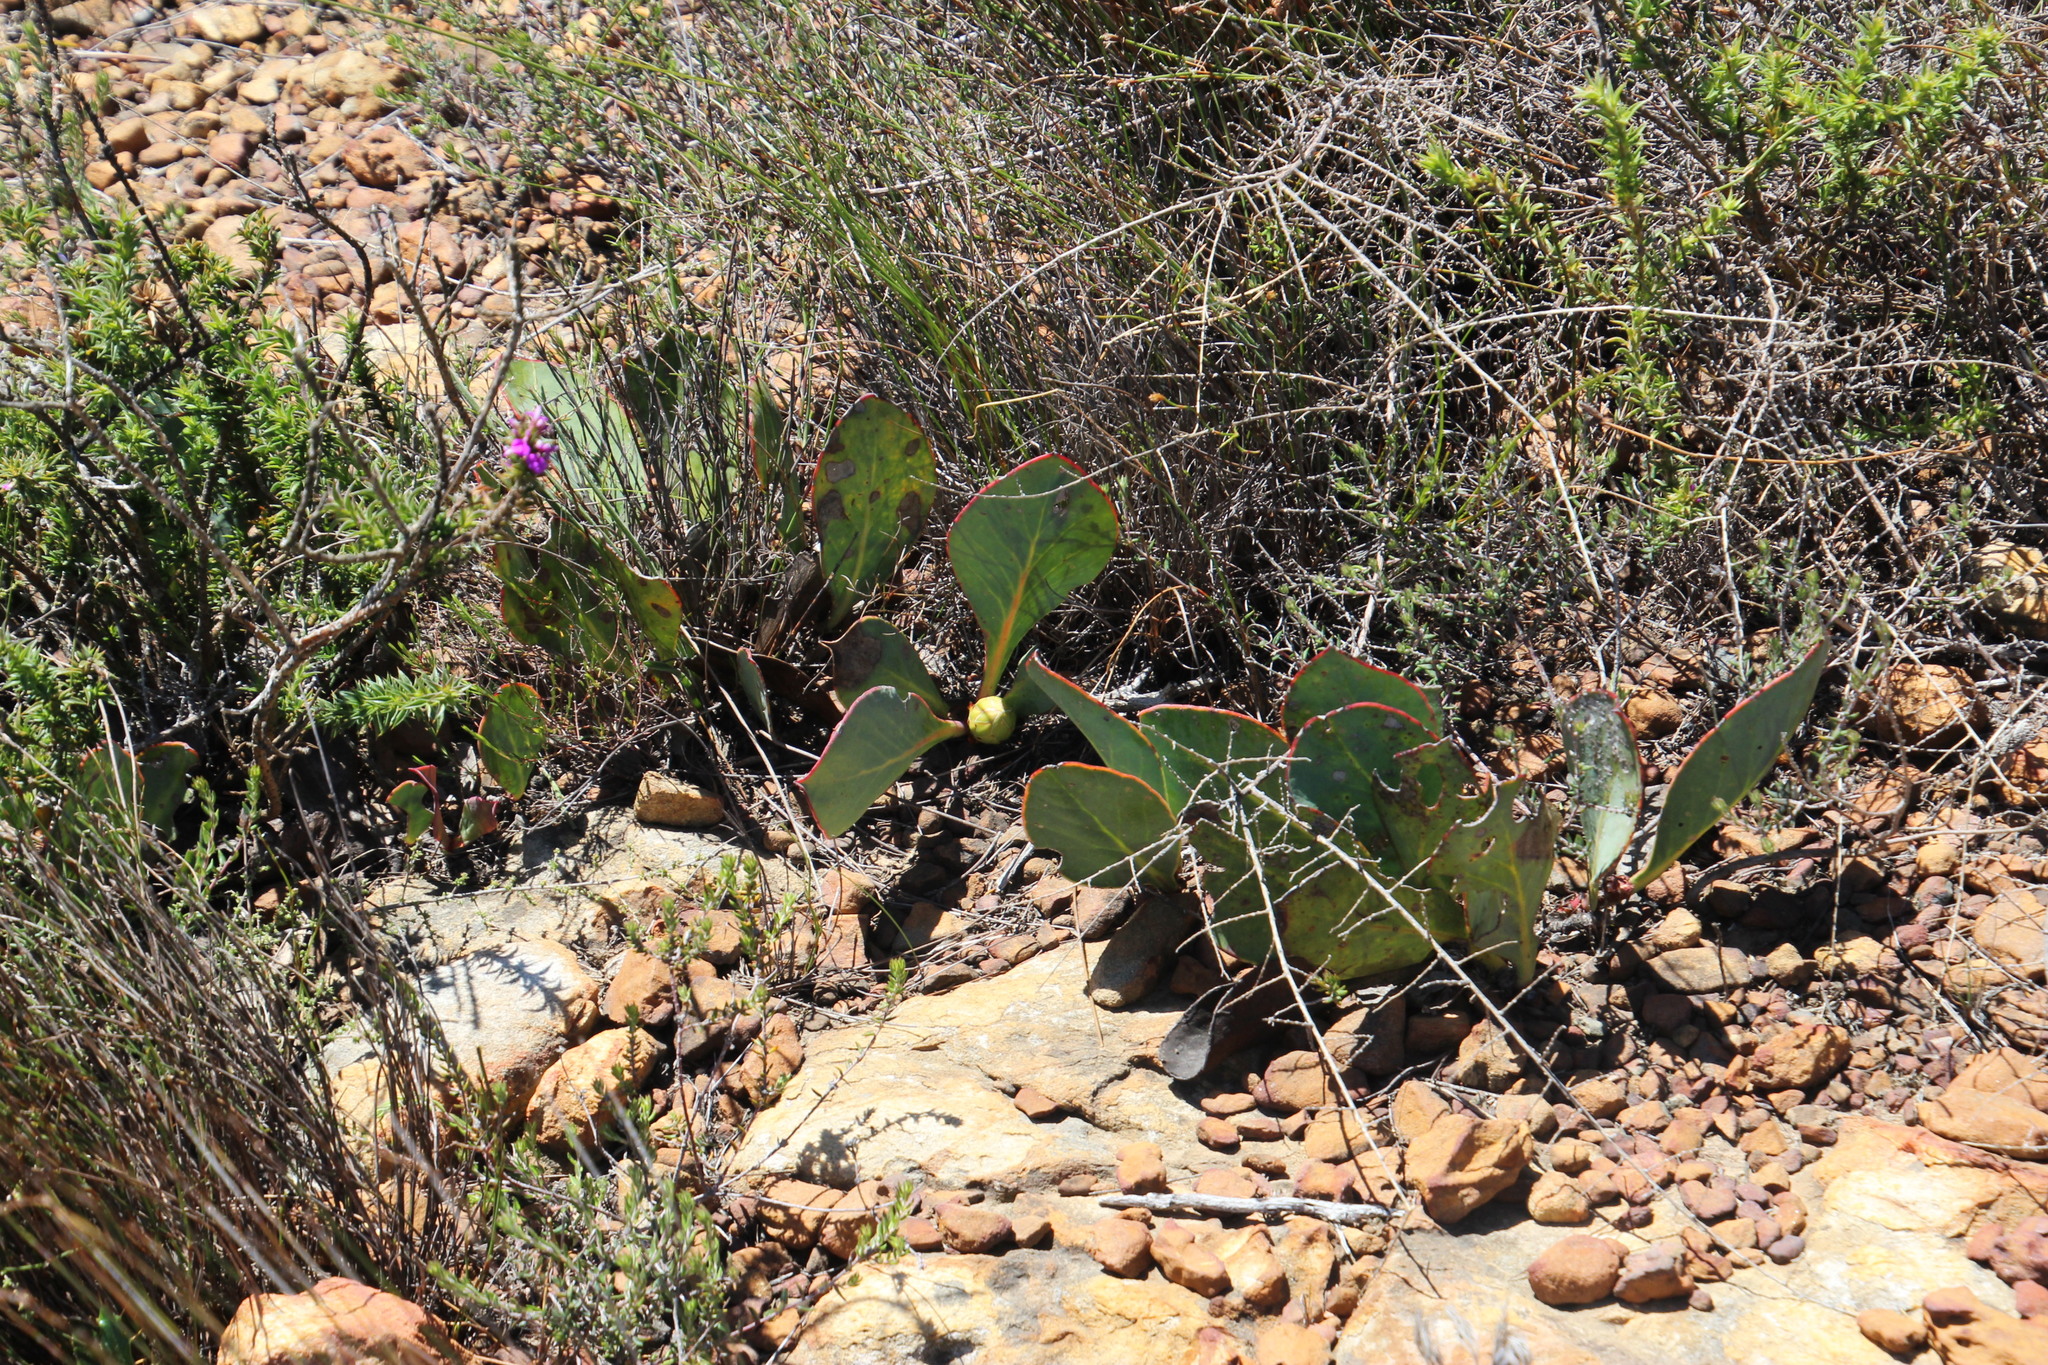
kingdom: Plantae
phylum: Tracheophyta
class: Magnoliopsida
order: Proteales
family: Proteaceae
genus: Protea
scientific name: Protea acaulos
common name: Common ground sugarbush
